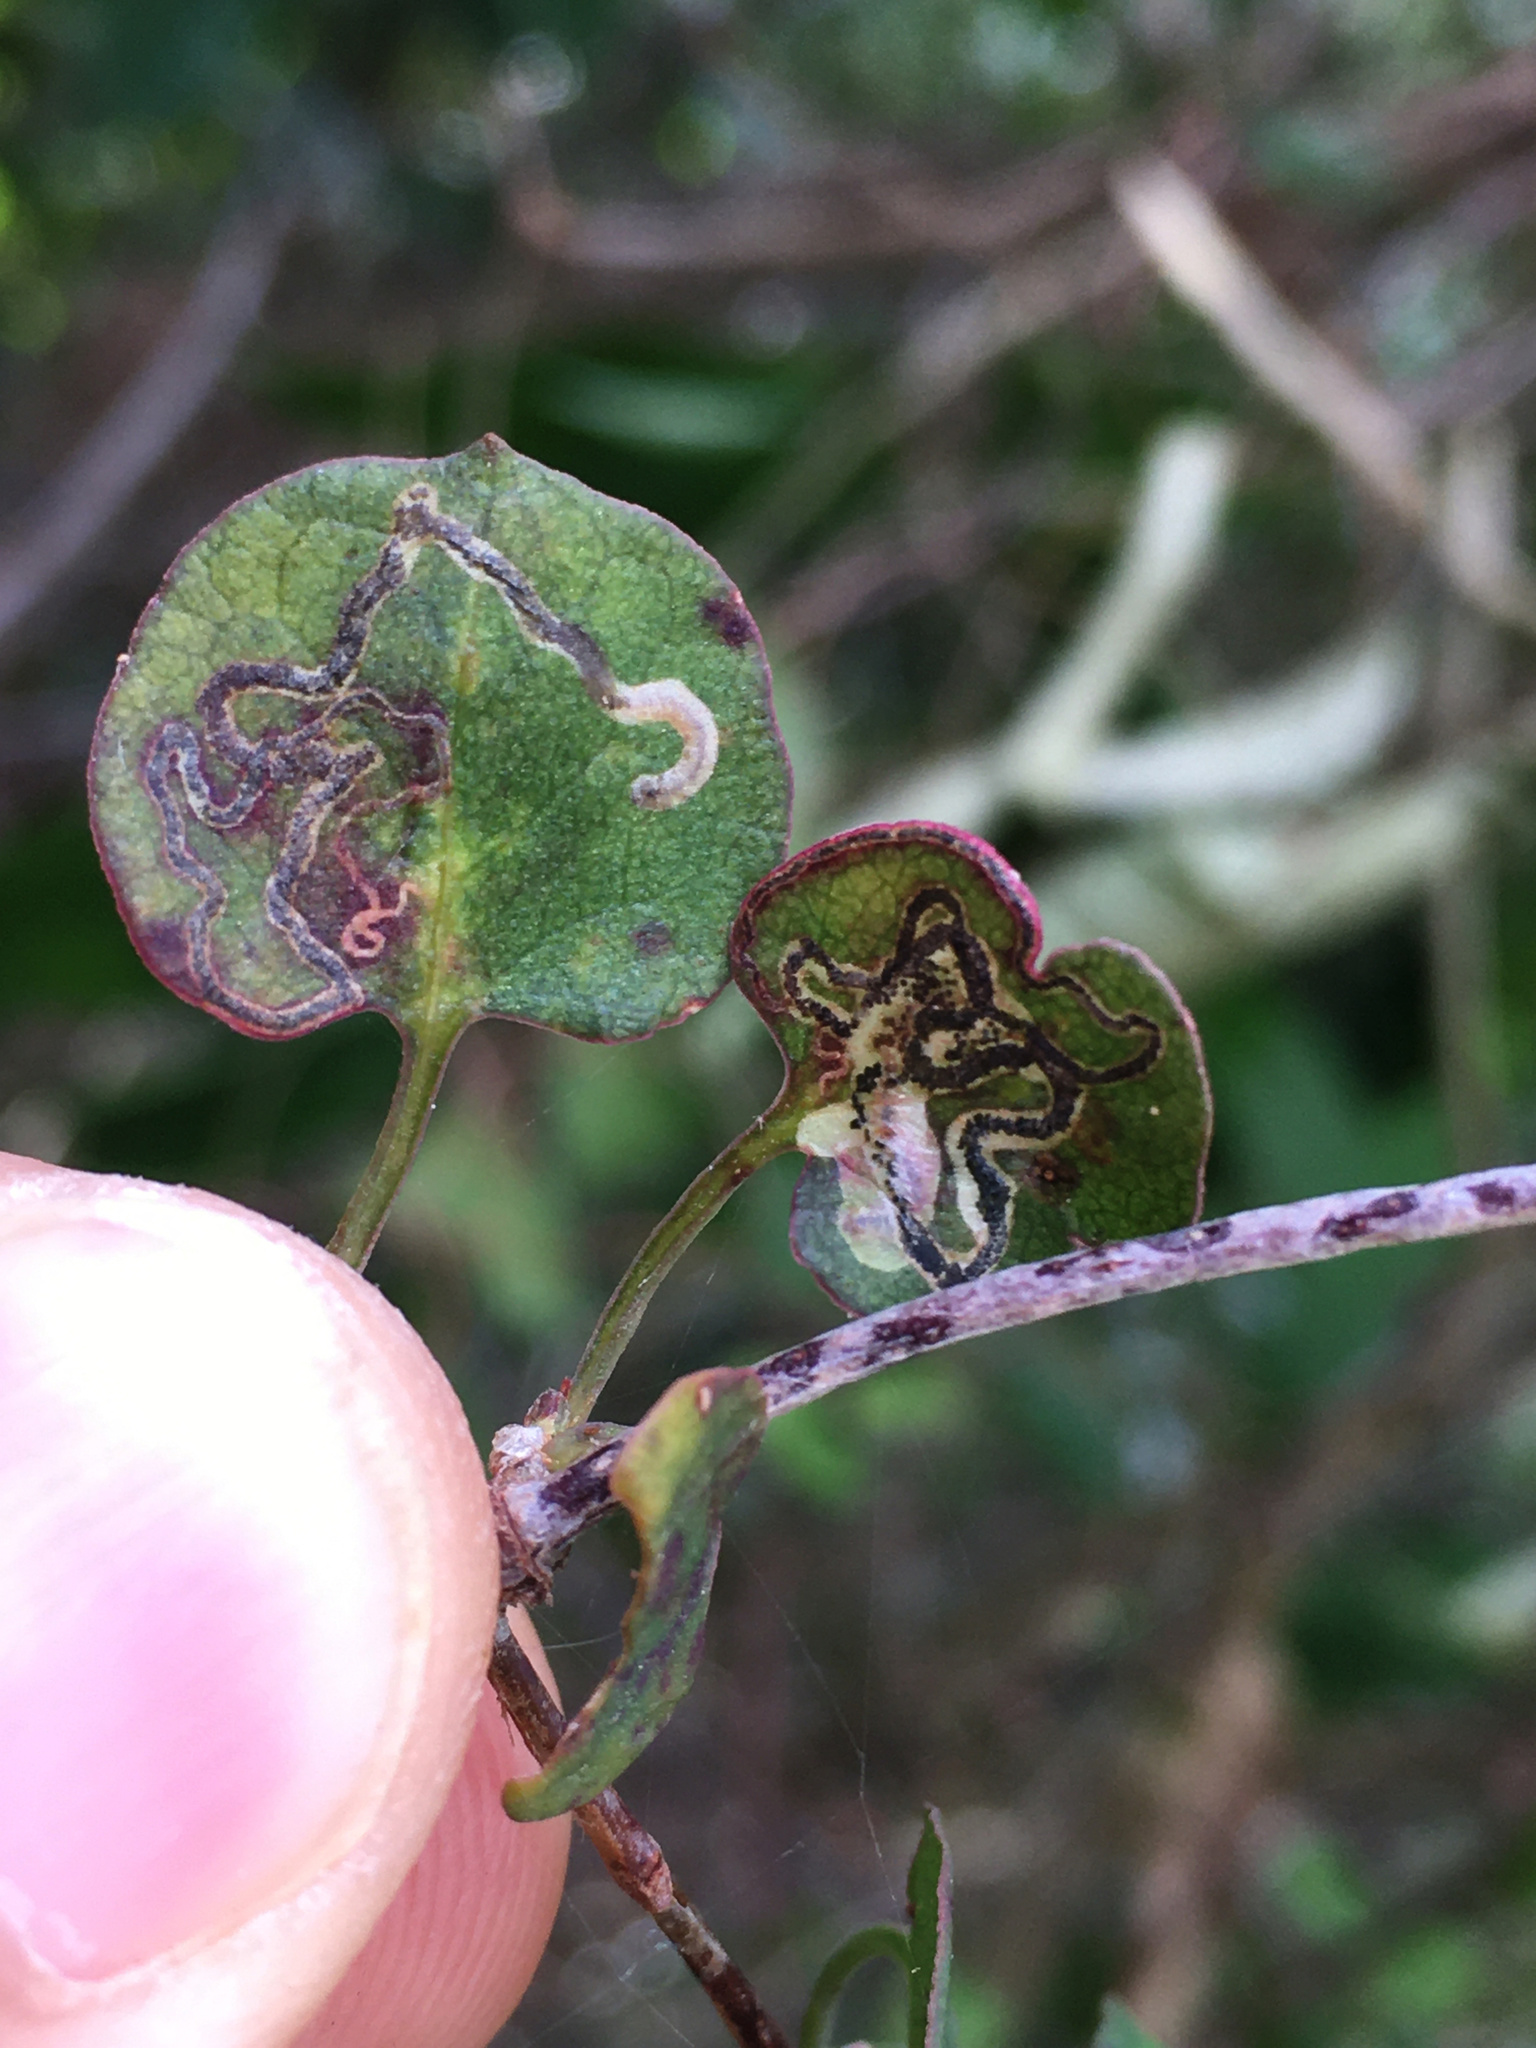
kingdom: Animalia
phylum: Arthropoda
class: Insecta
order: Lepidoptera
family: Momphidae
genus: Zapyrastra
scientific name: Zapyrastra calliphana
